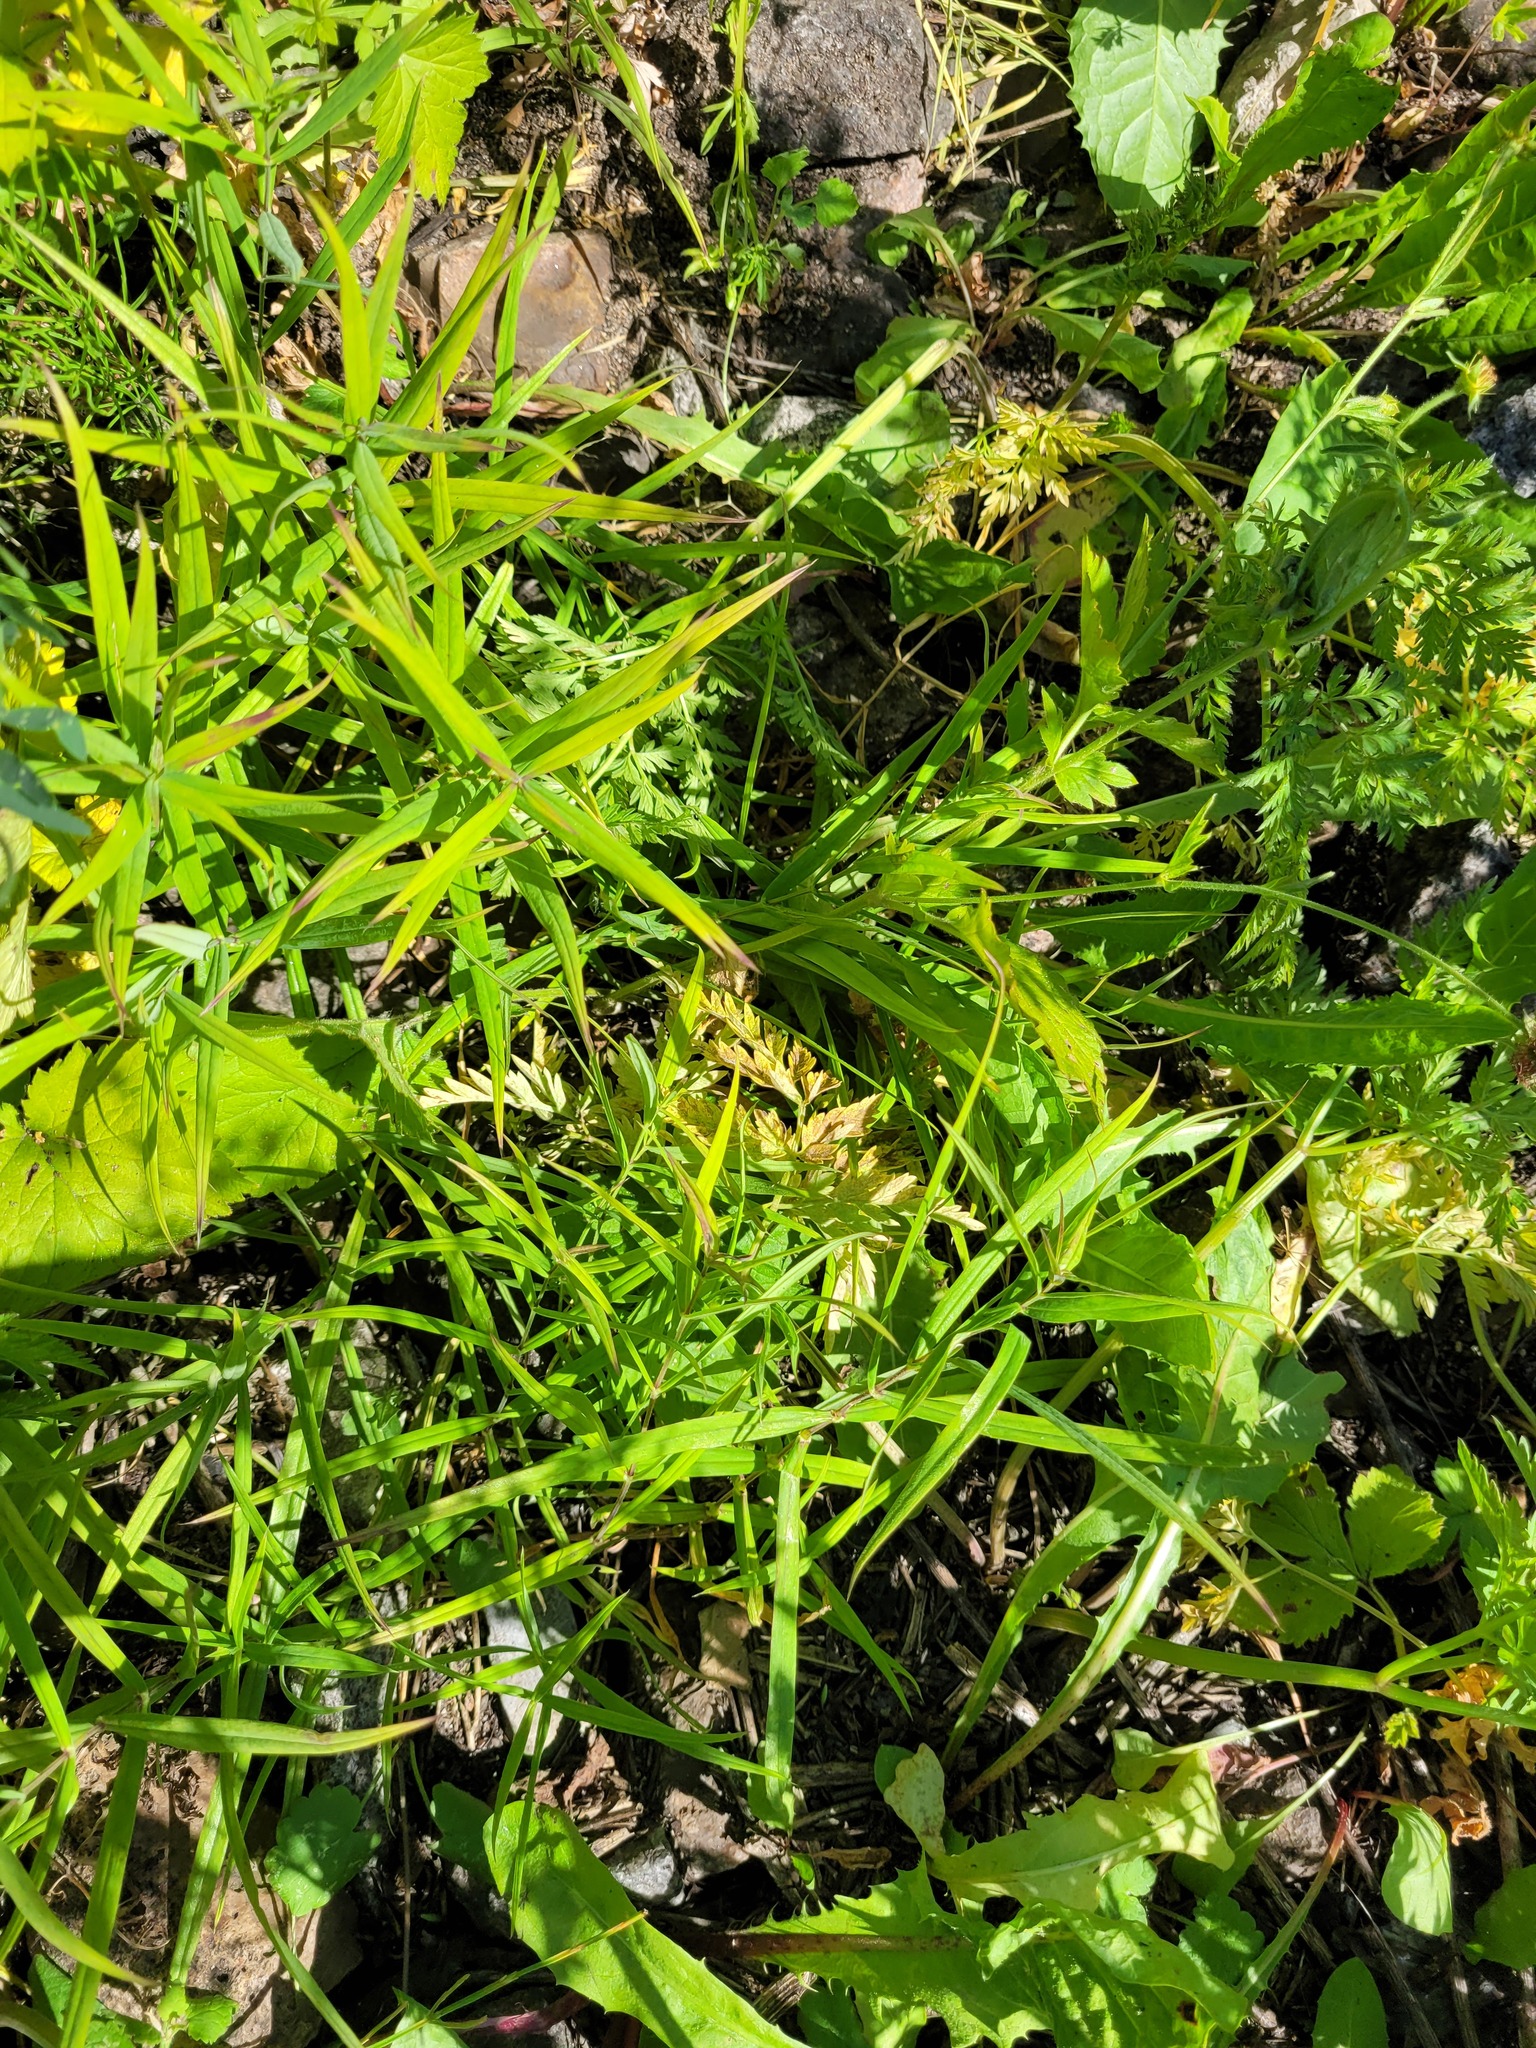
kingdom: Plantae
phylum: Tracheophyta
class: Magnoliopsida
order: Caryophyllales
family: Caryophyllaceae
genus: Rabelera
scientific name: Rabelera holostea
